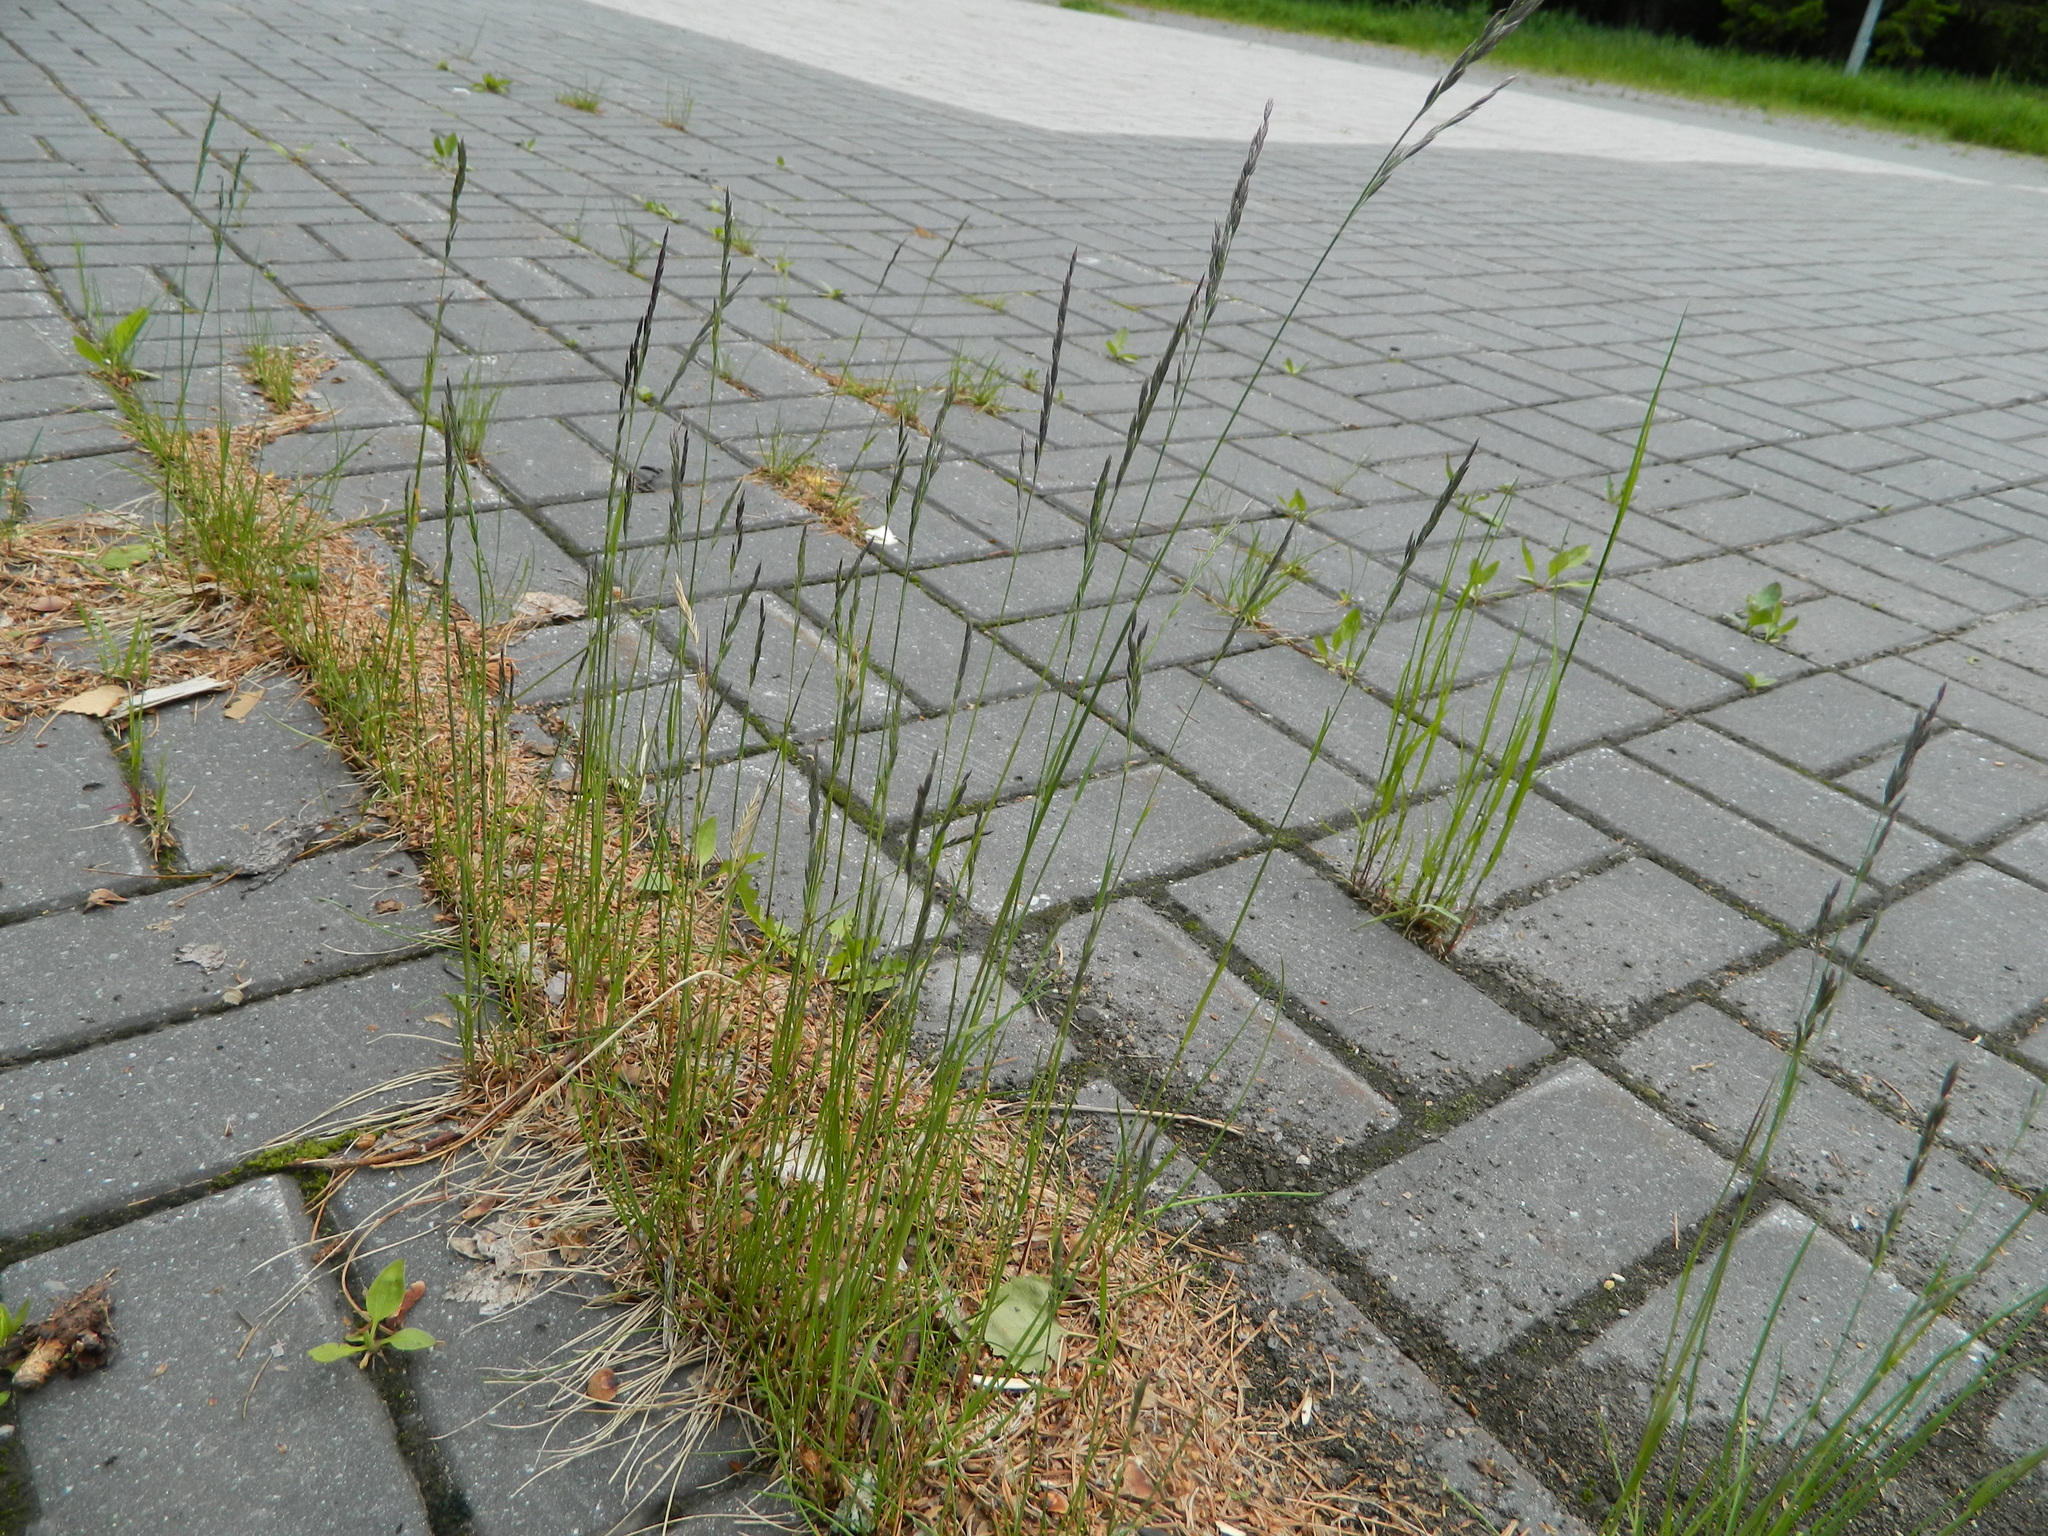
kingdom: Plantae
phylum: Tracheophyta
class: Liliopsida
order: Poales
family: Poaceae
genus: Festuca
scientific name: Festuca rubra
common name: Red fescue
